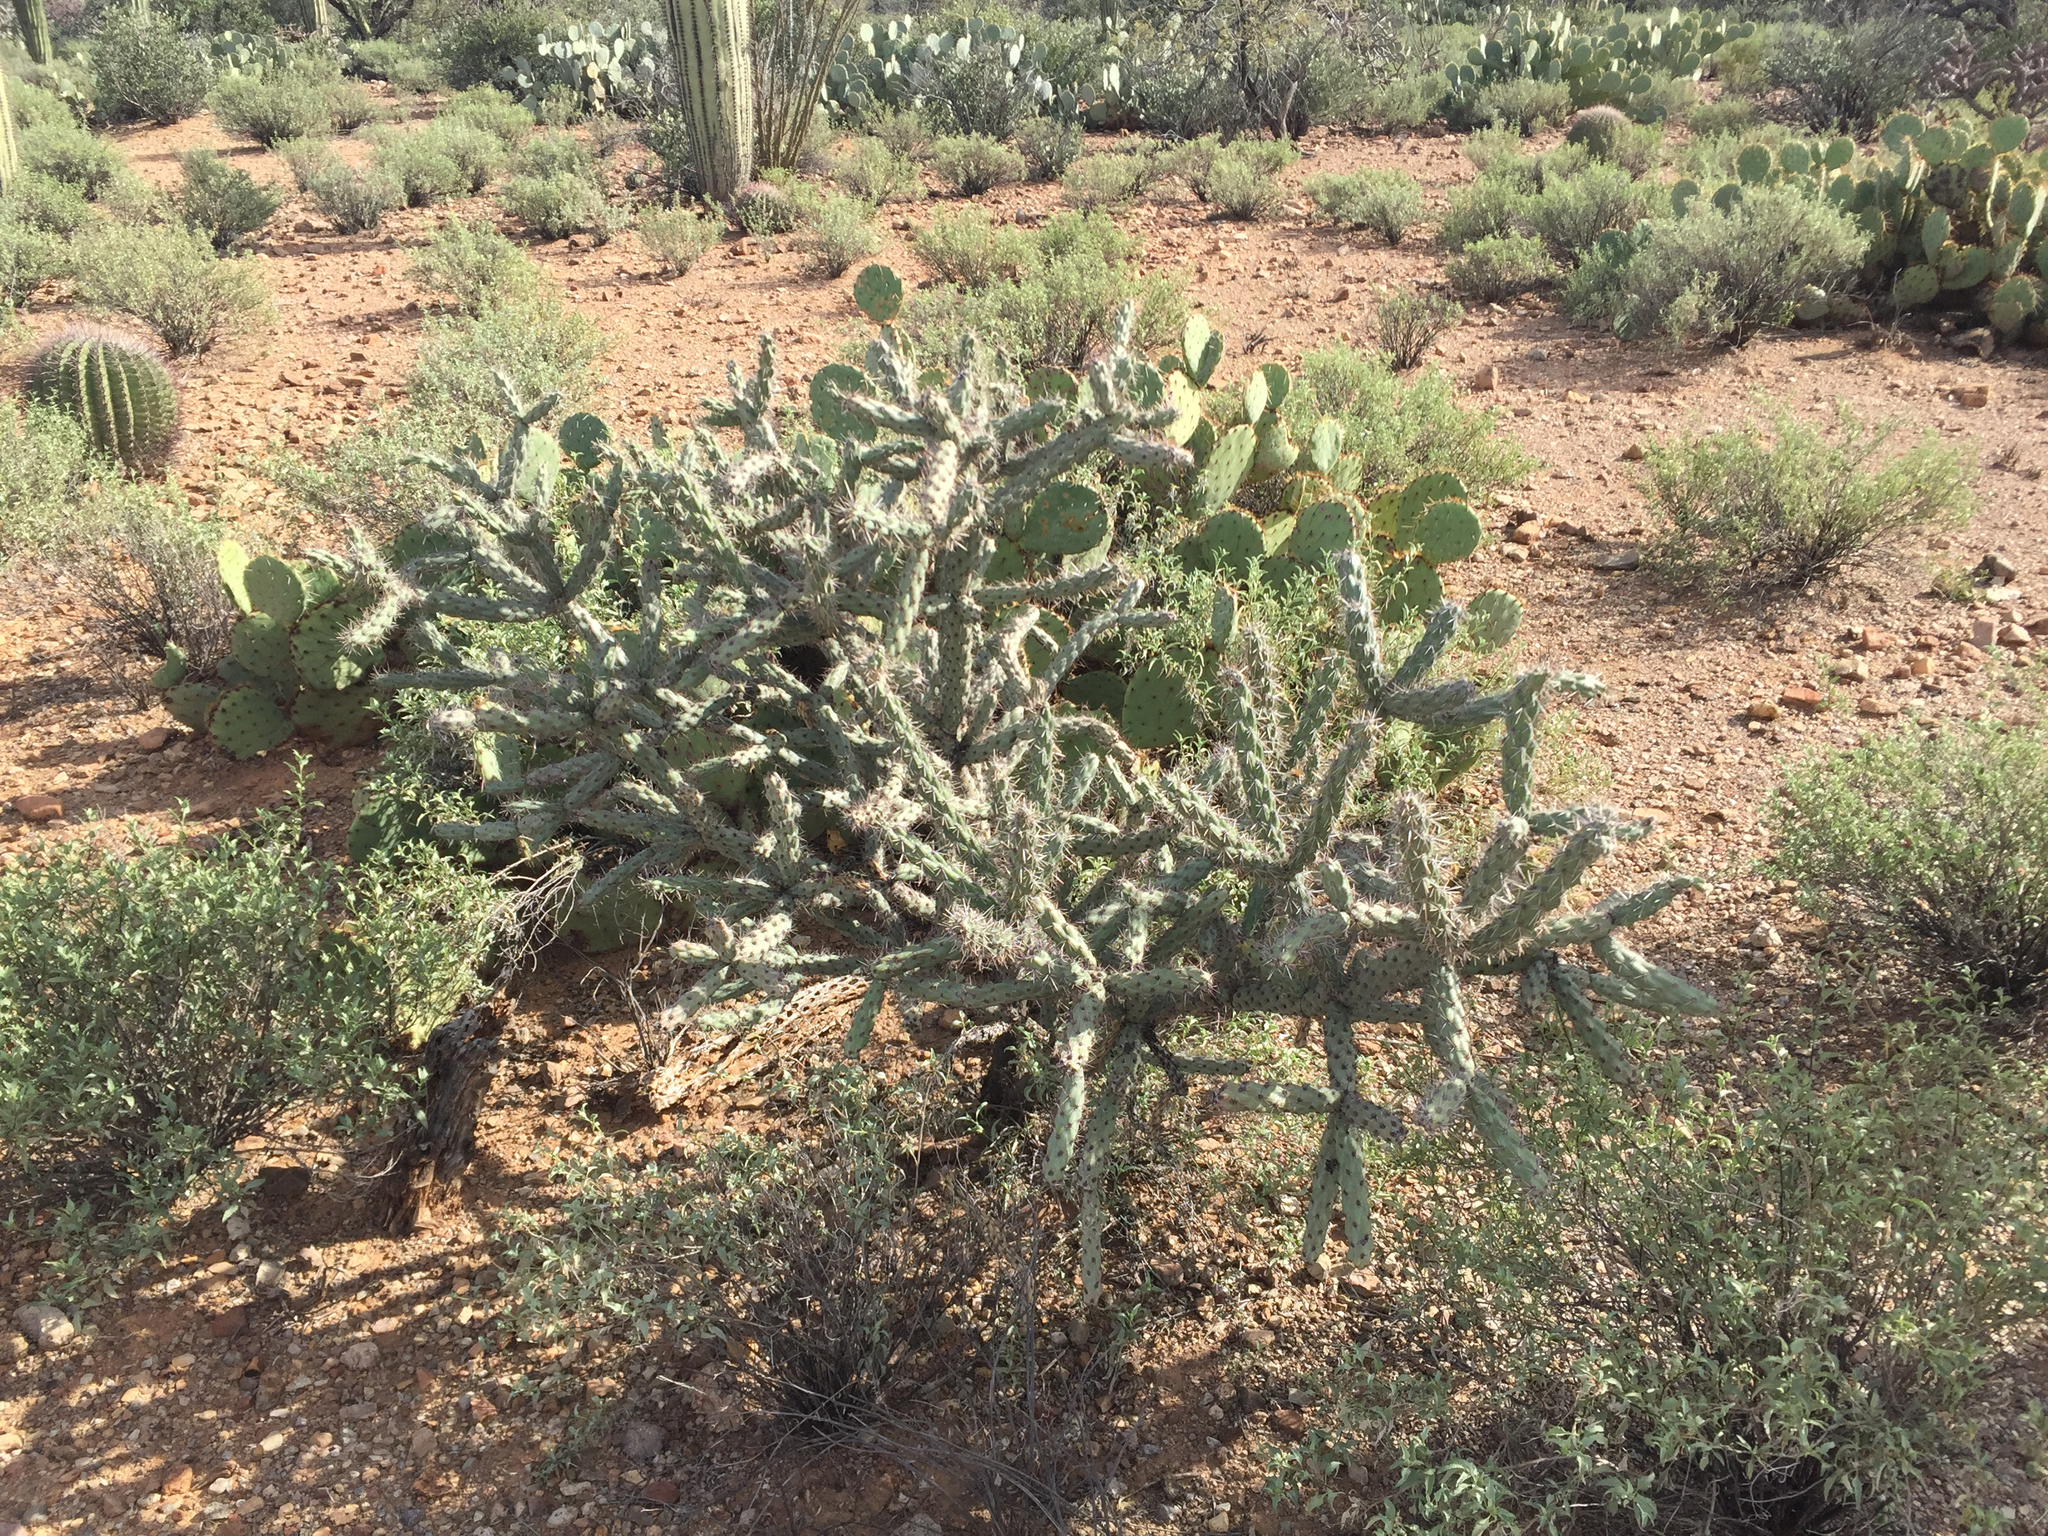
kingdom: Plantae
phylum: Tracheophyta
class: Magnoliopsida
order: Caryophyllales
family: Cactaceae
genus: Cylindropuntia
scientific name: Cylindropuntia acanthocarpa
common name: Buckhorn cholla
